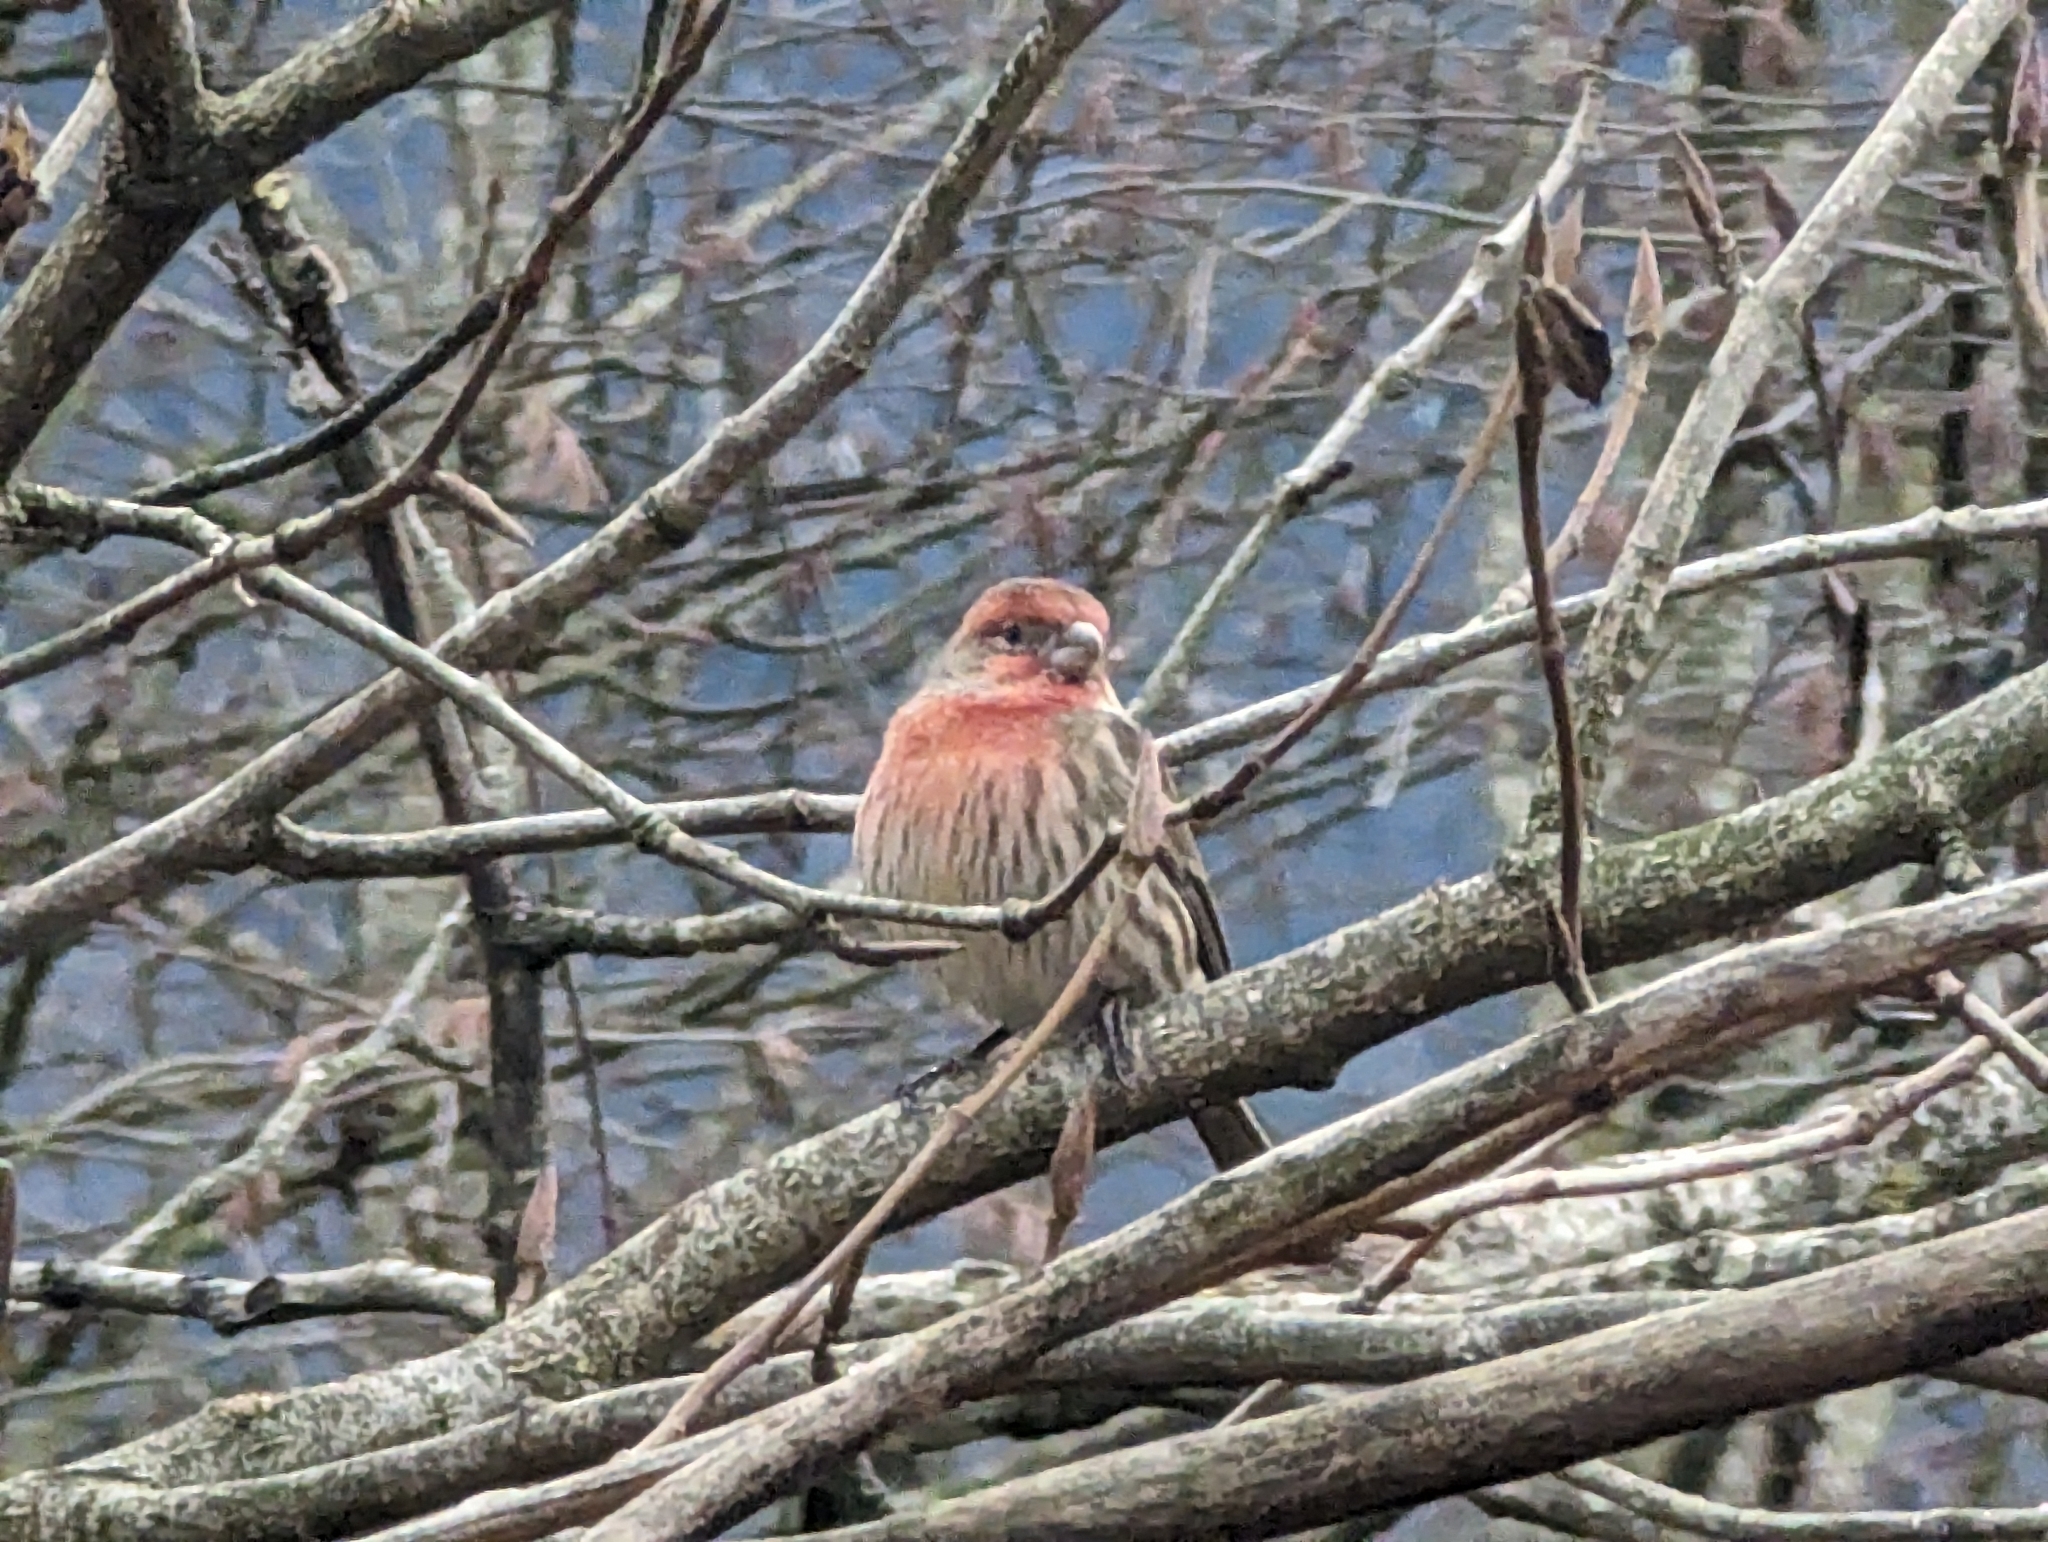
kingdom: Animalia
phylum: Chordata
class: Aves
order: Passeriformes
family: Fringillidae
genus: Haemorhous
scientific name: Haemorhous mexicanus
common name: House finch
